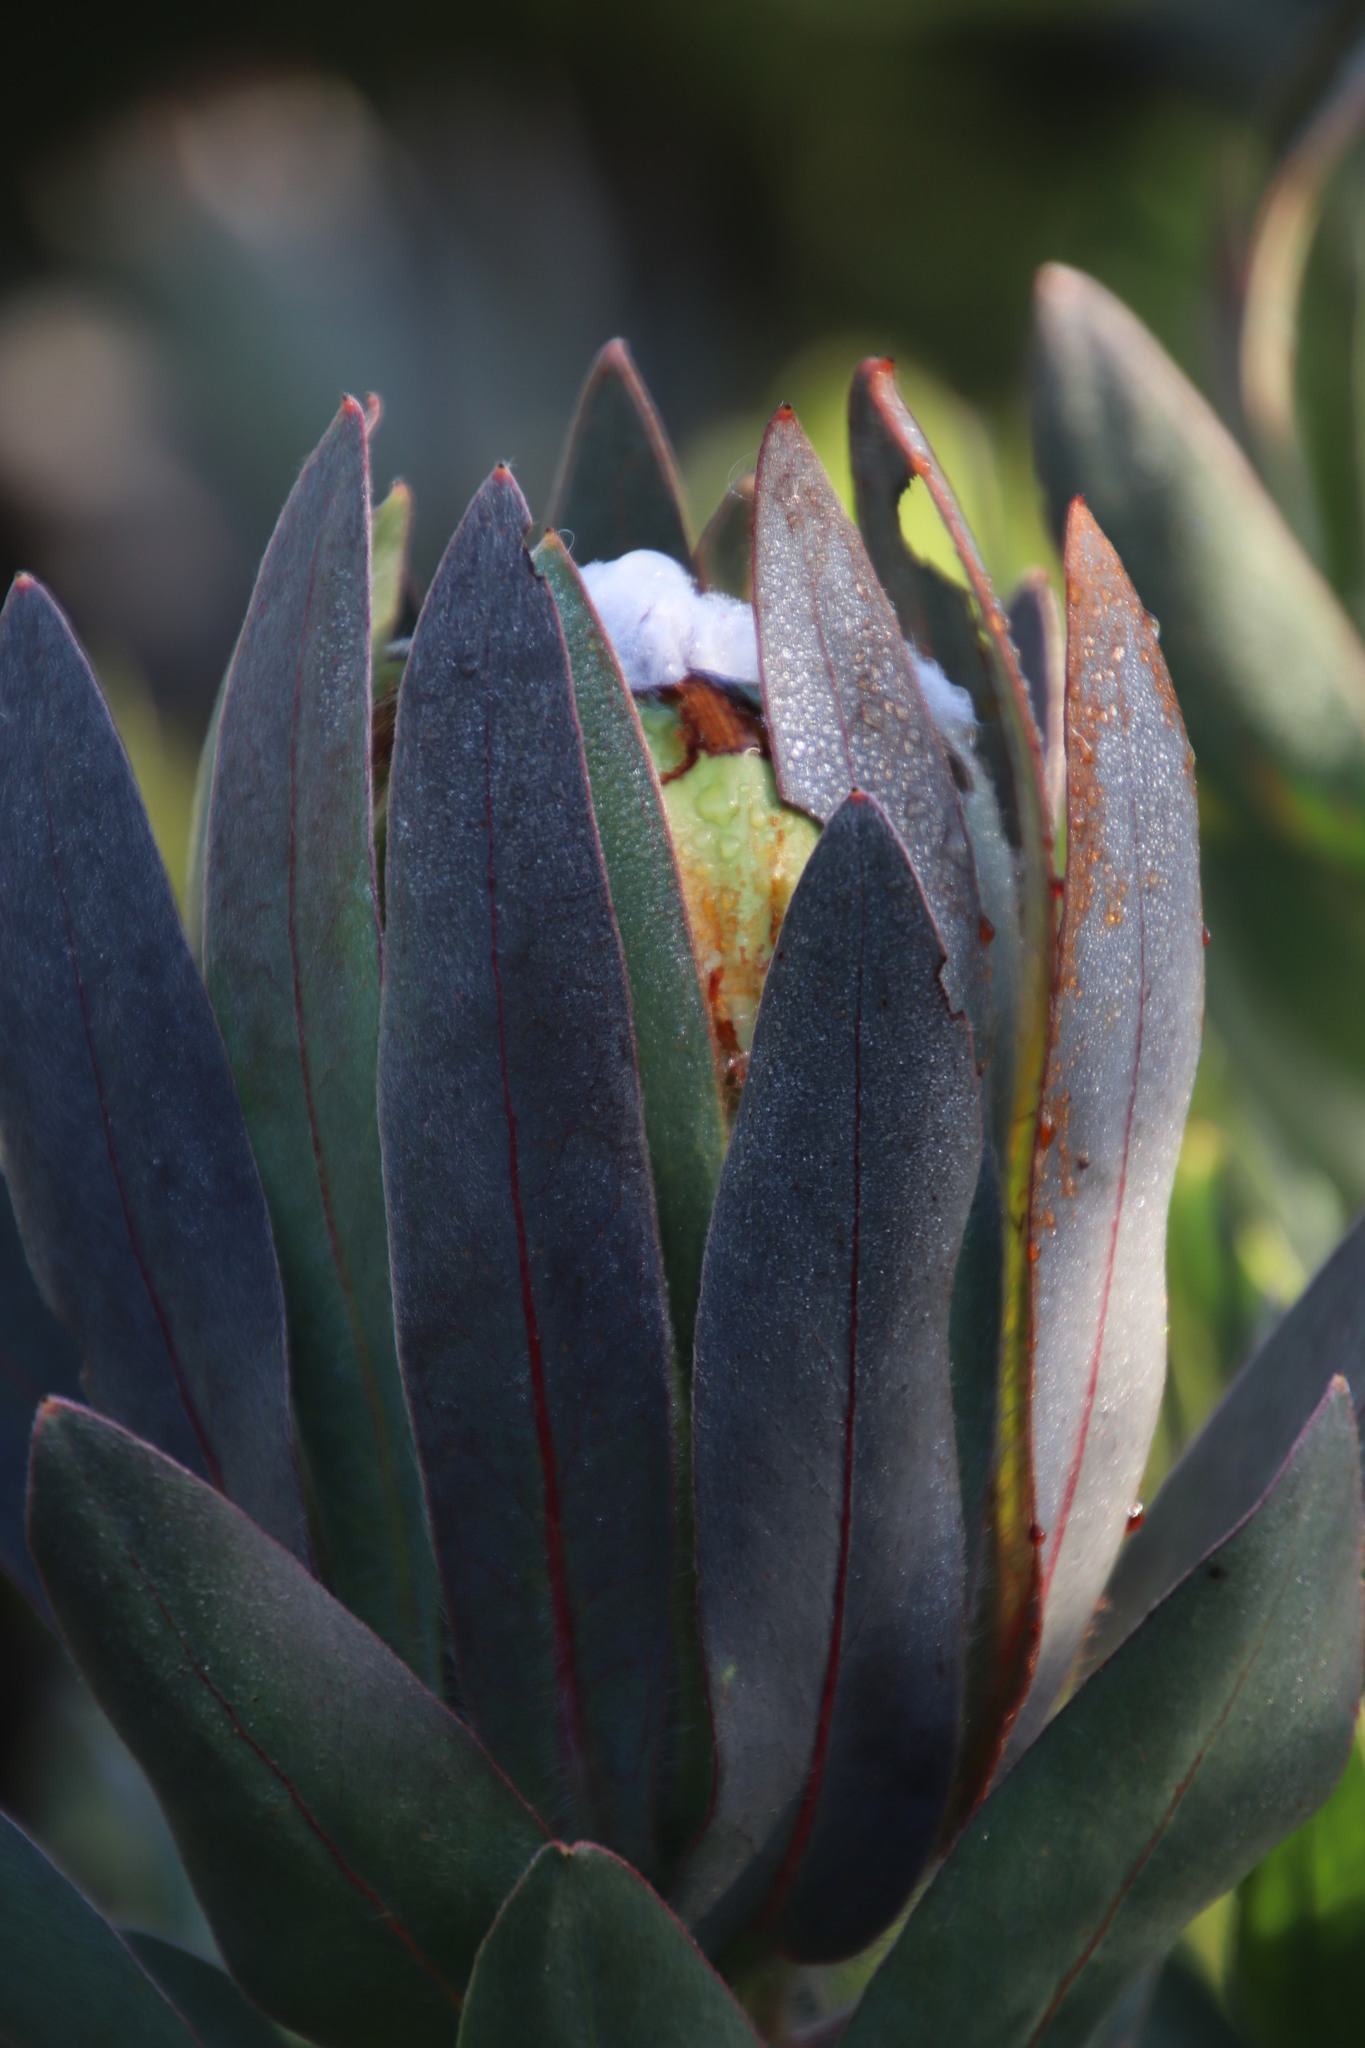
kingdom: Plantae
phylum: Tracheophyta
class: Magnoliopsida
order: Proteales
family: Proteaceae
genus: Protea
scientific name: Protea coronata
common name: Green sugarbush
